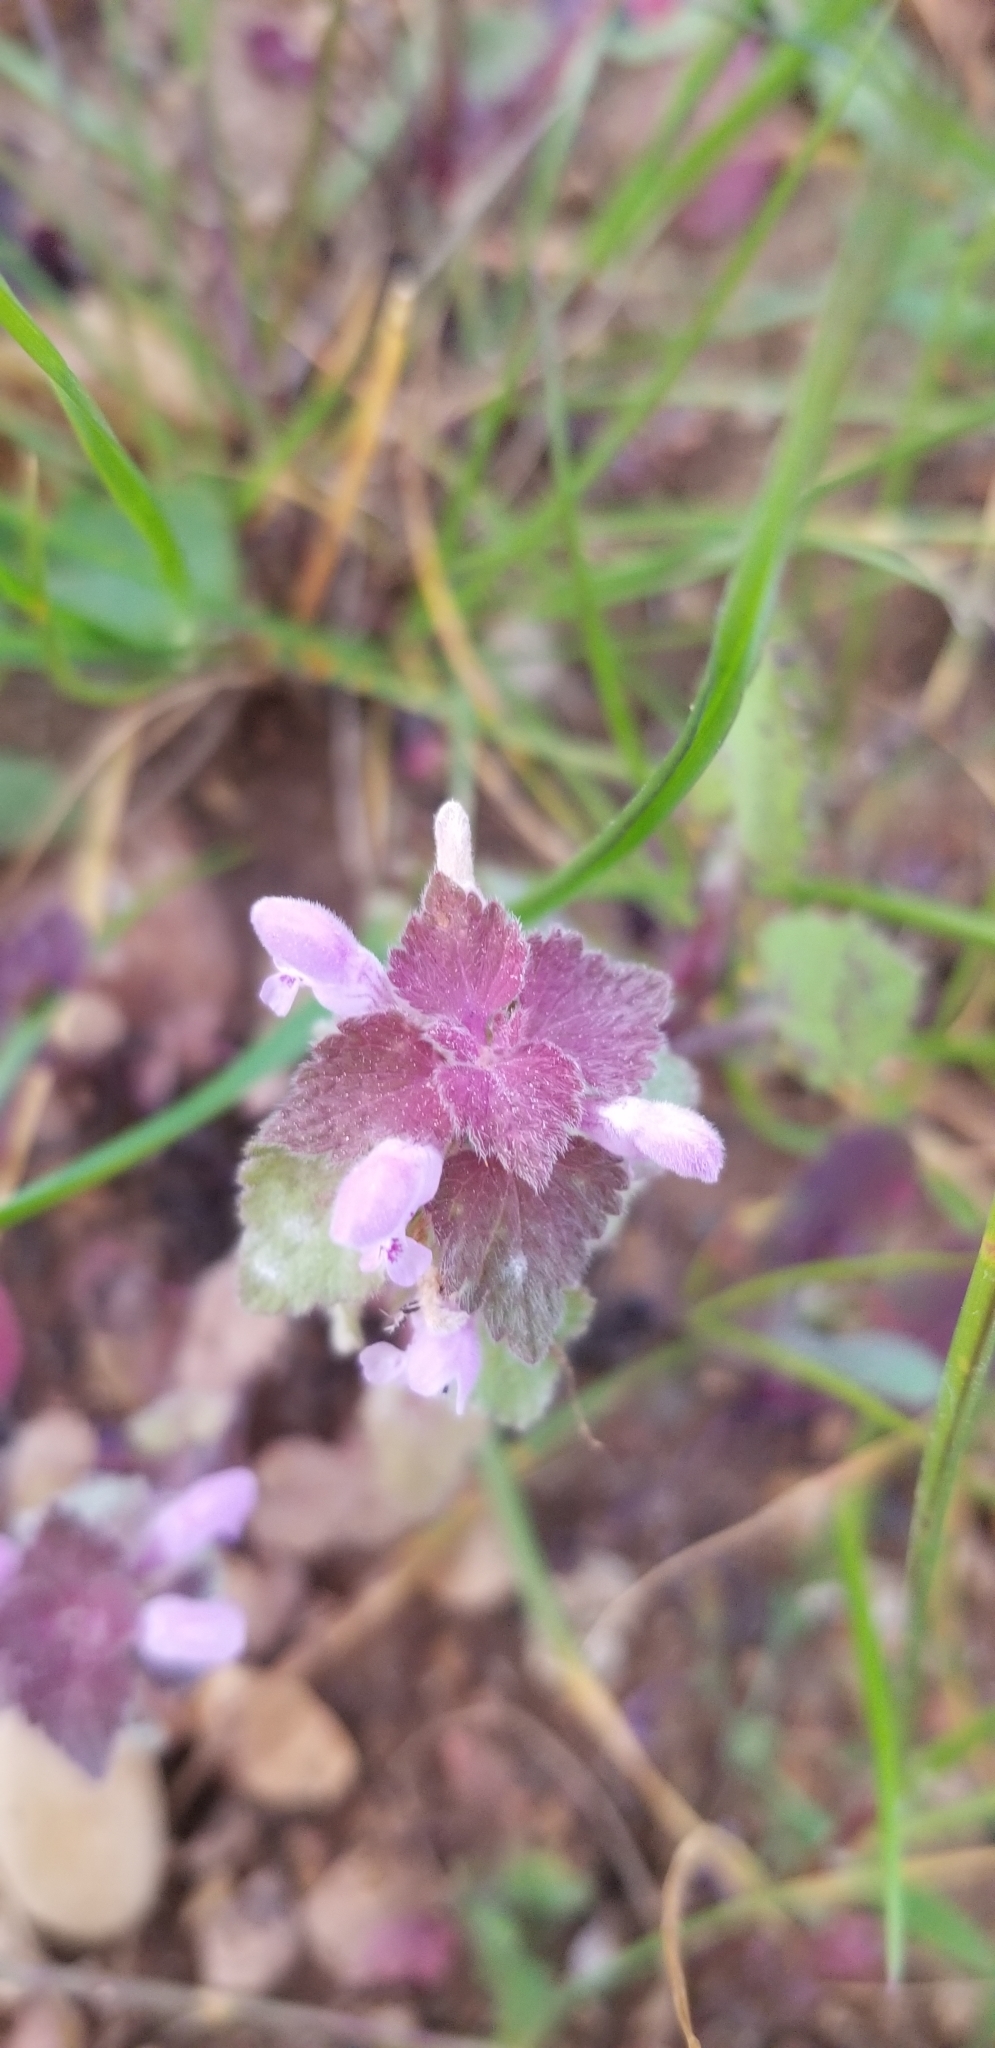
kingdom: Plantae
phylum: Tracheophyta
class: Magnoliopsida
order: Lamiales
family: Lamiaceae
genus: Lamium
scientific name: Lamium purpureum
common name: Red dead-nettle
